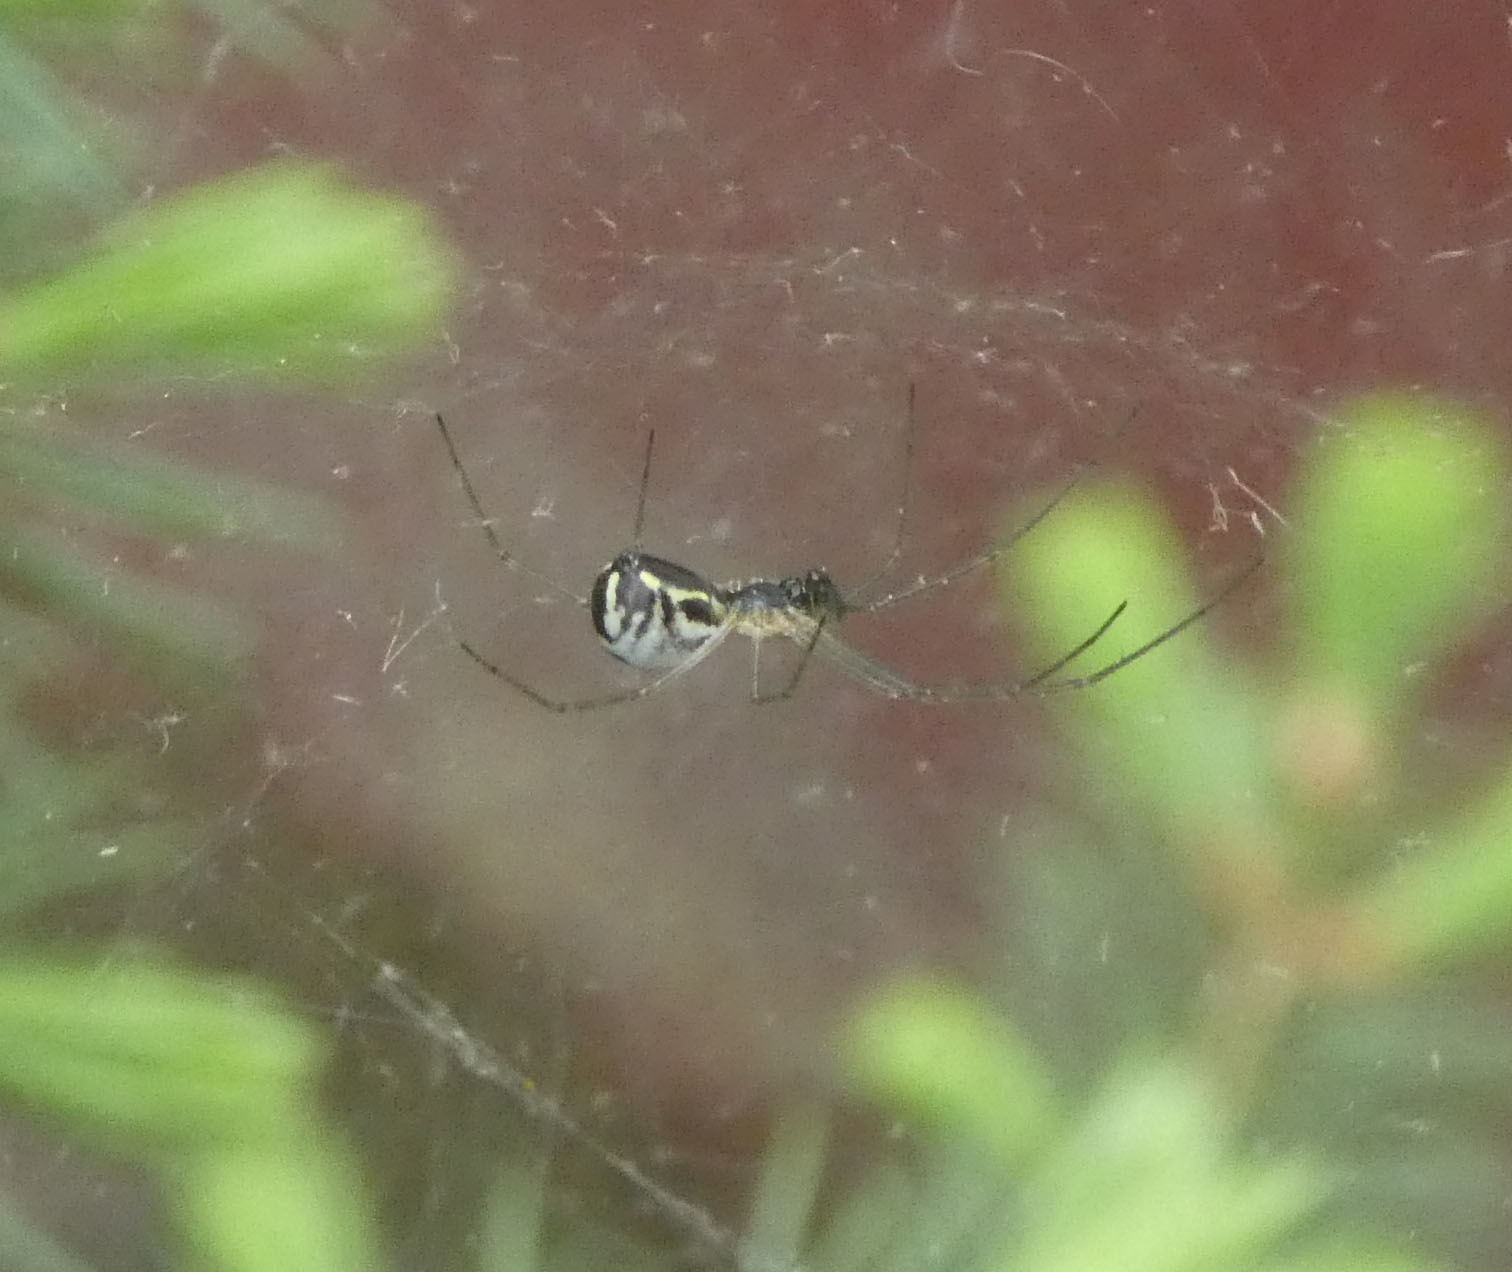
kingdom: Animalia
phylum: Arthropoda
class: Arachnida
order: Araneae
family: Linyphiidae
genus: Neriene
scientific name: Neriene radiata
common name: Filmy dome spider
